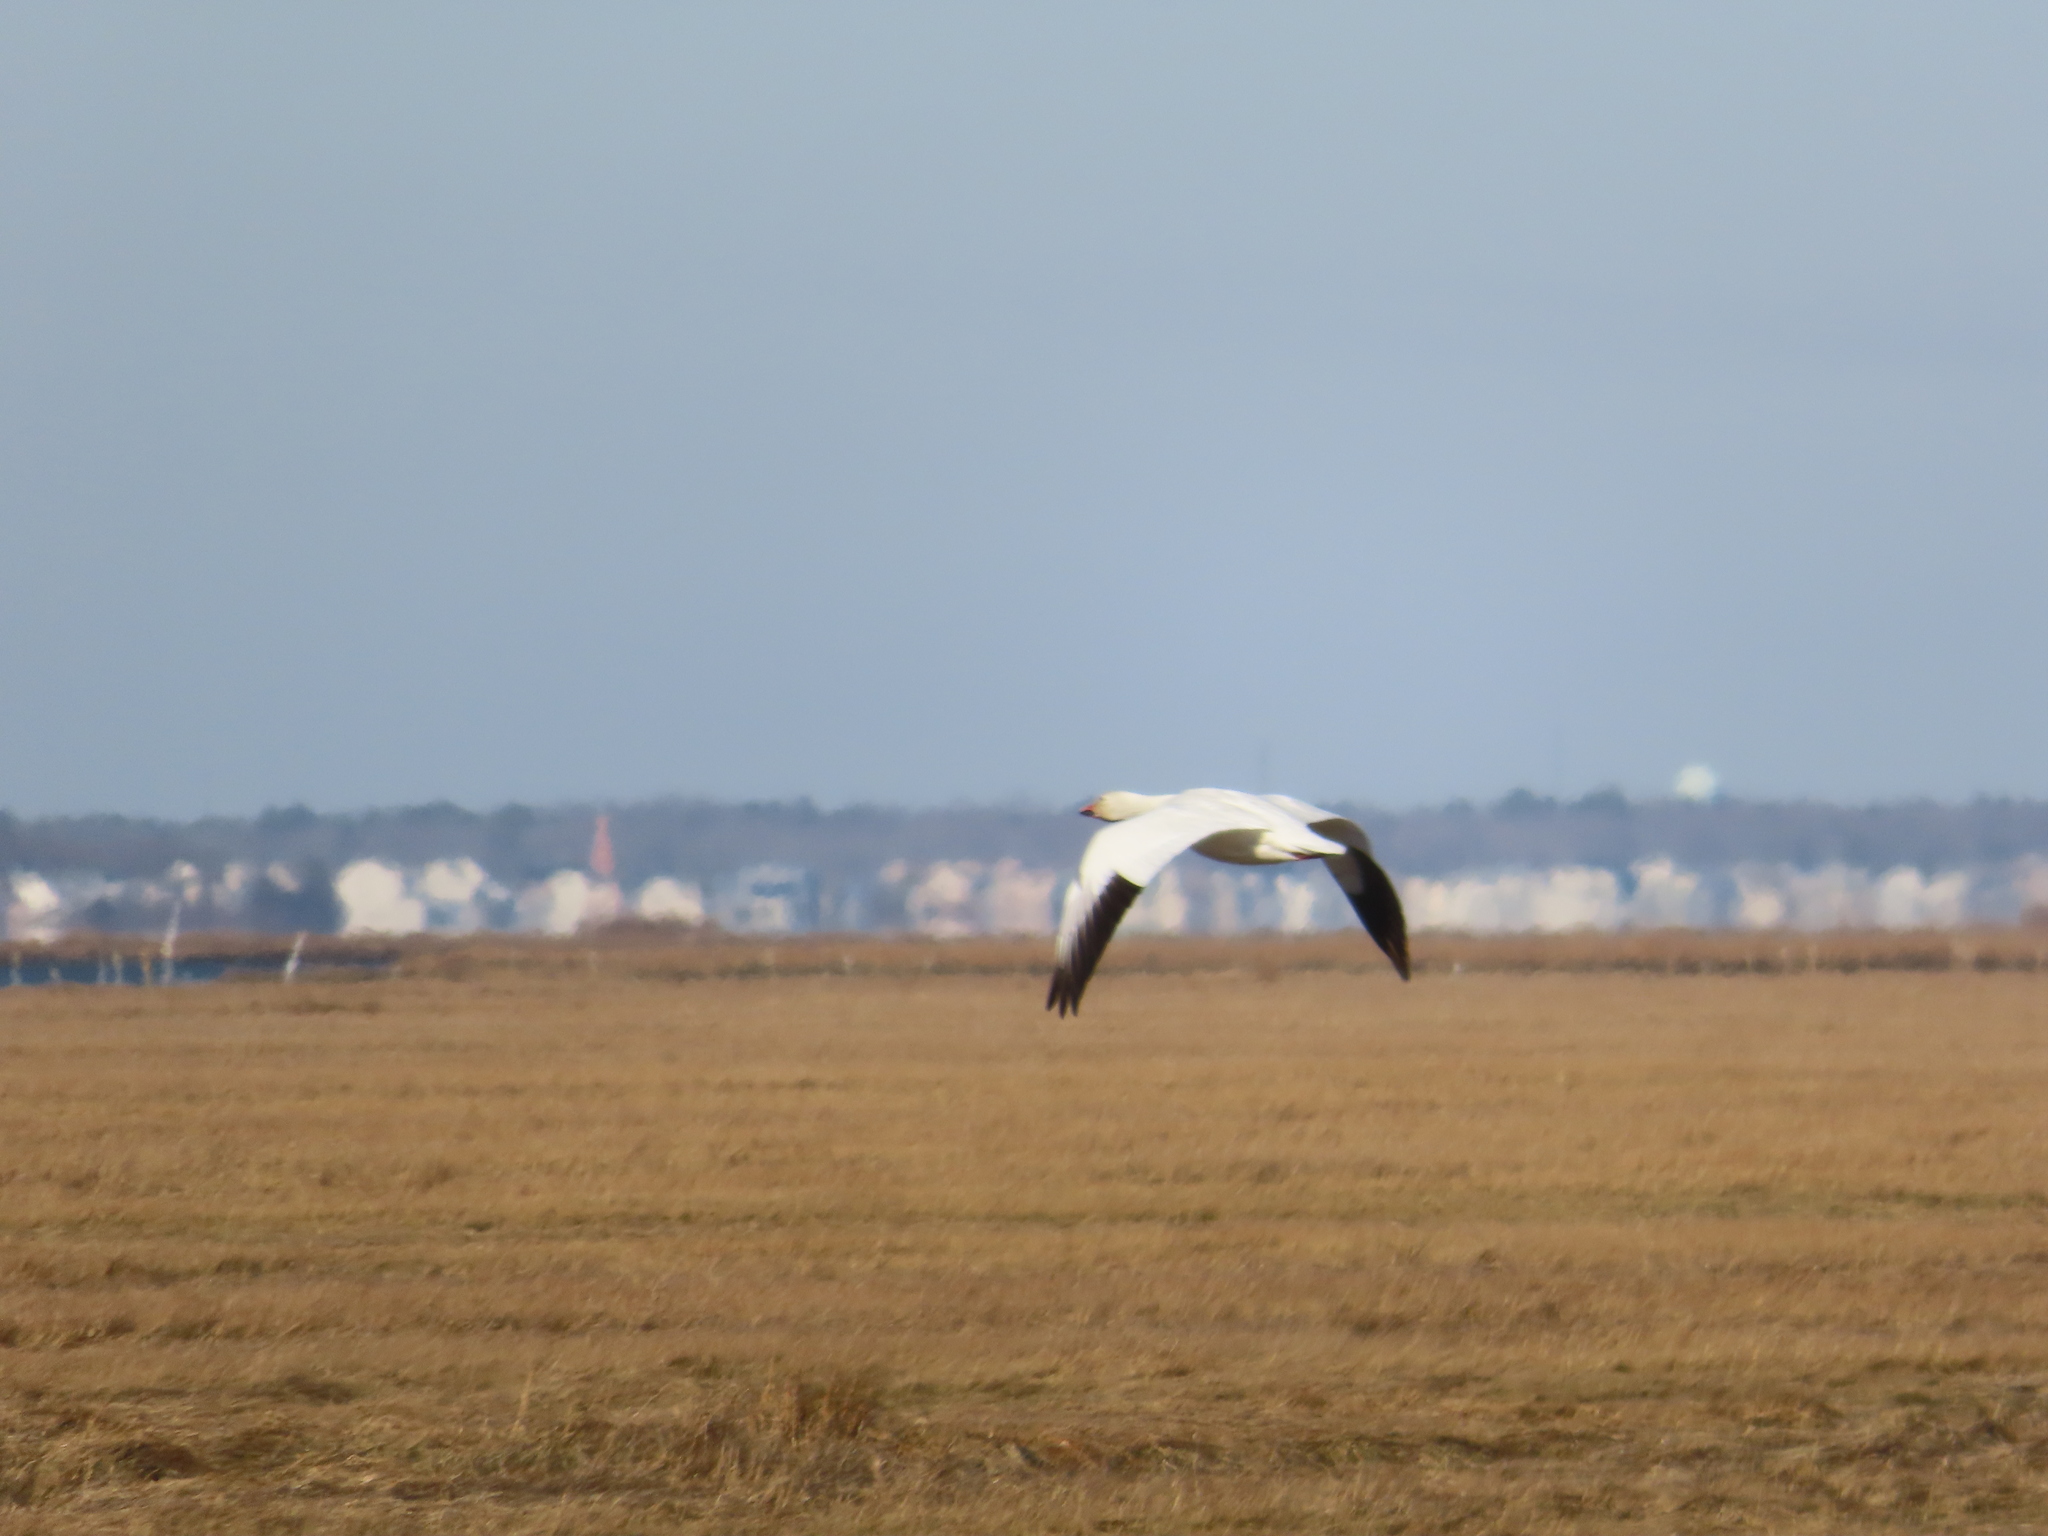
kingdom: Animalia
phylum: Chordata
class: Aves
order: Anseriformes
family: Anatidae
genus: Anser
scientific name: Anser caerulescens
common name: Snow goose
